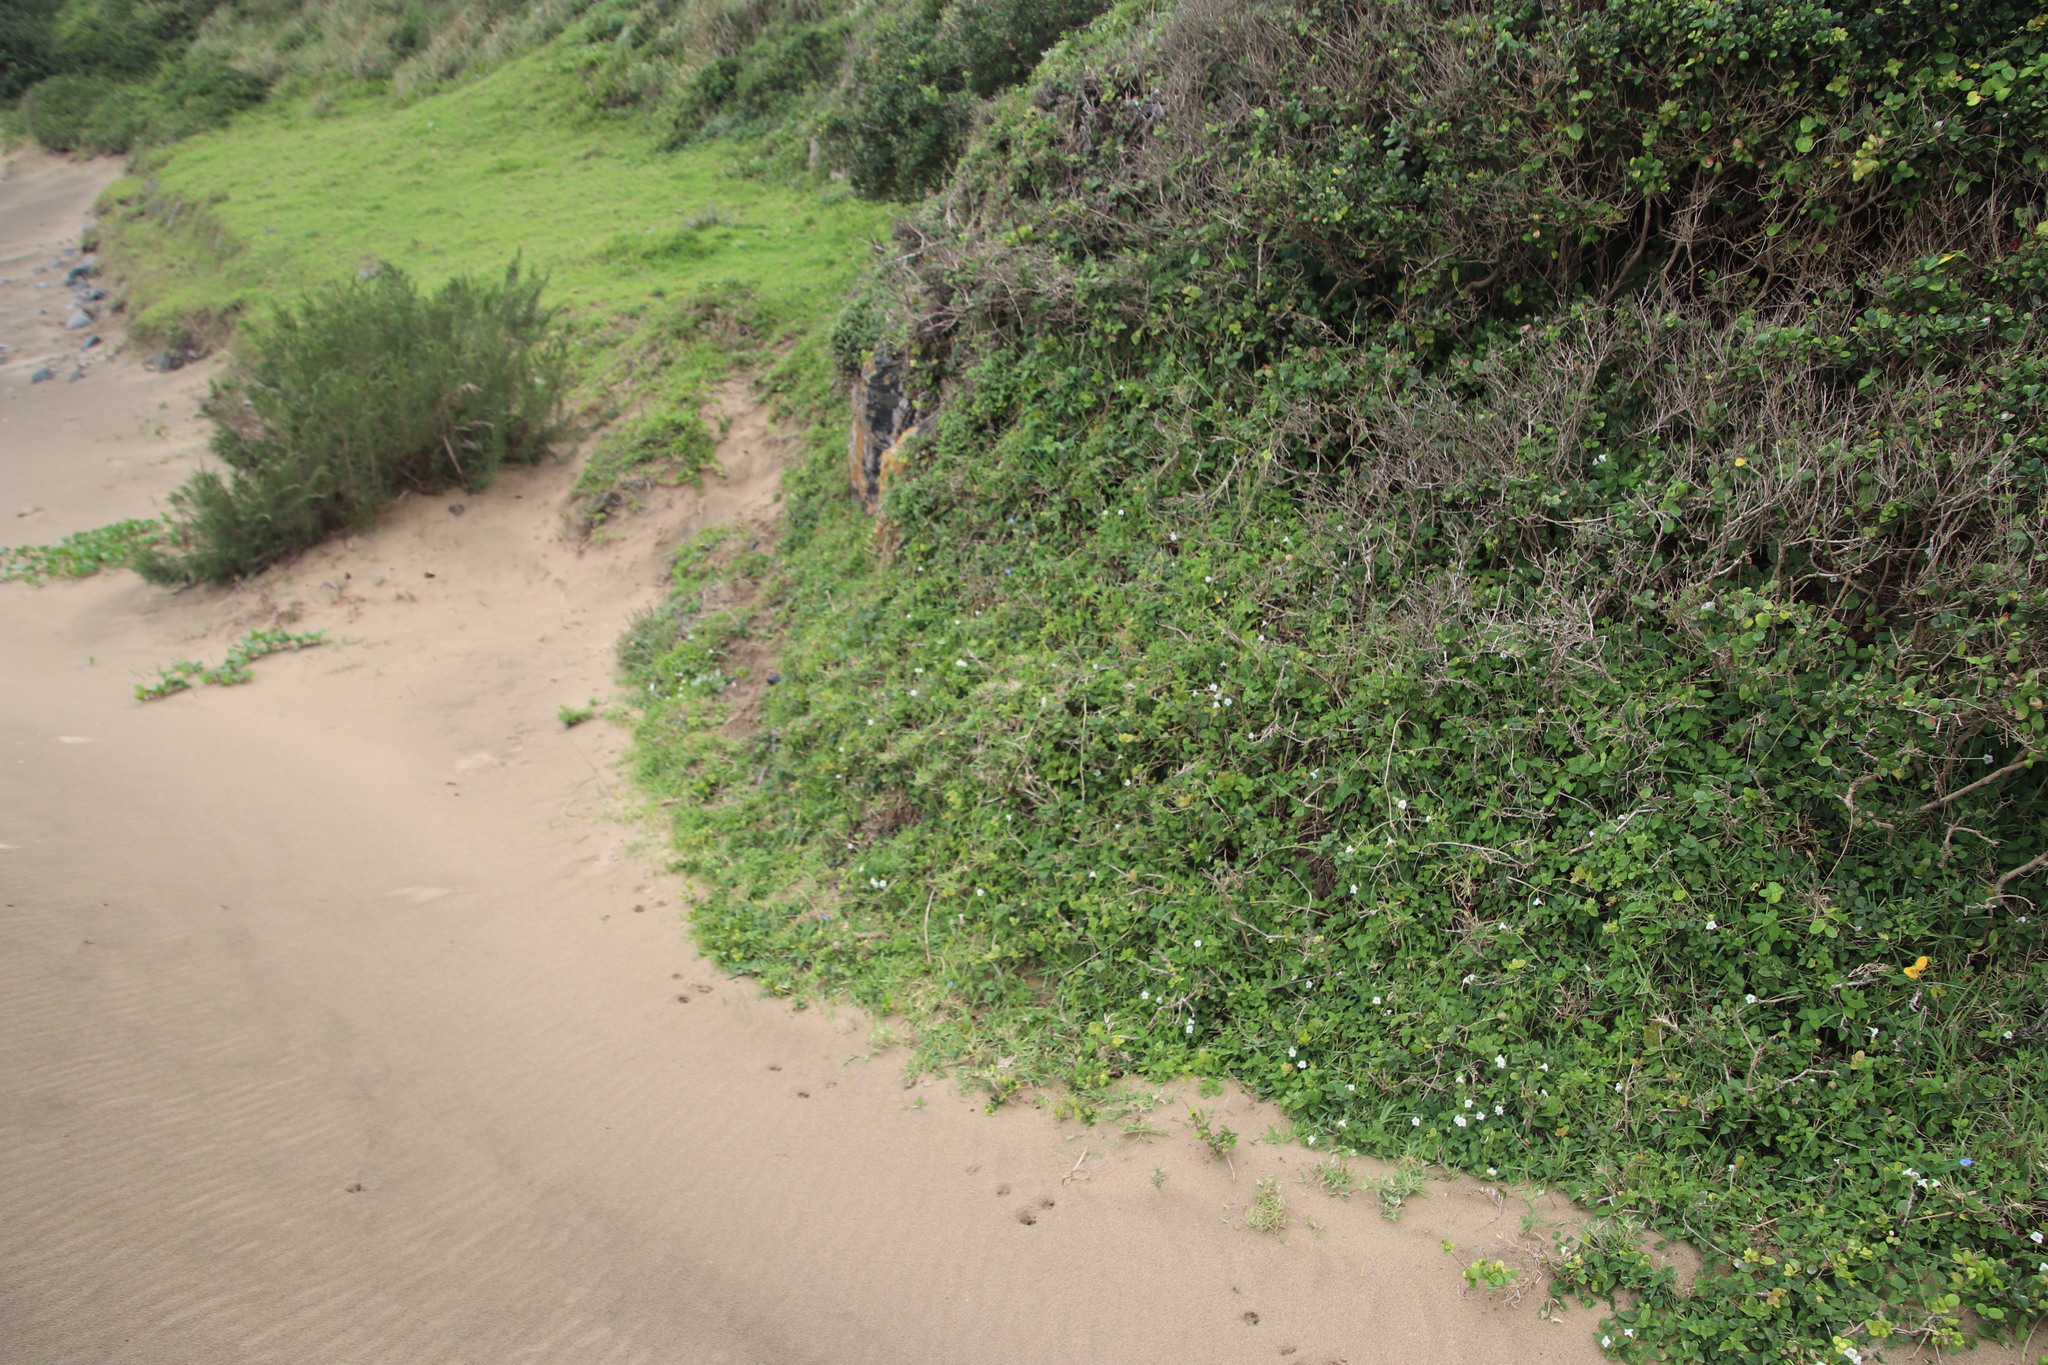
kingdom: Plantae
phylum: Tracheophyta
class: Magnoliopsida
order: Lamiales
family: Acanthaceae
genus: Asystasia
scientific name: Asystasia intrusa
